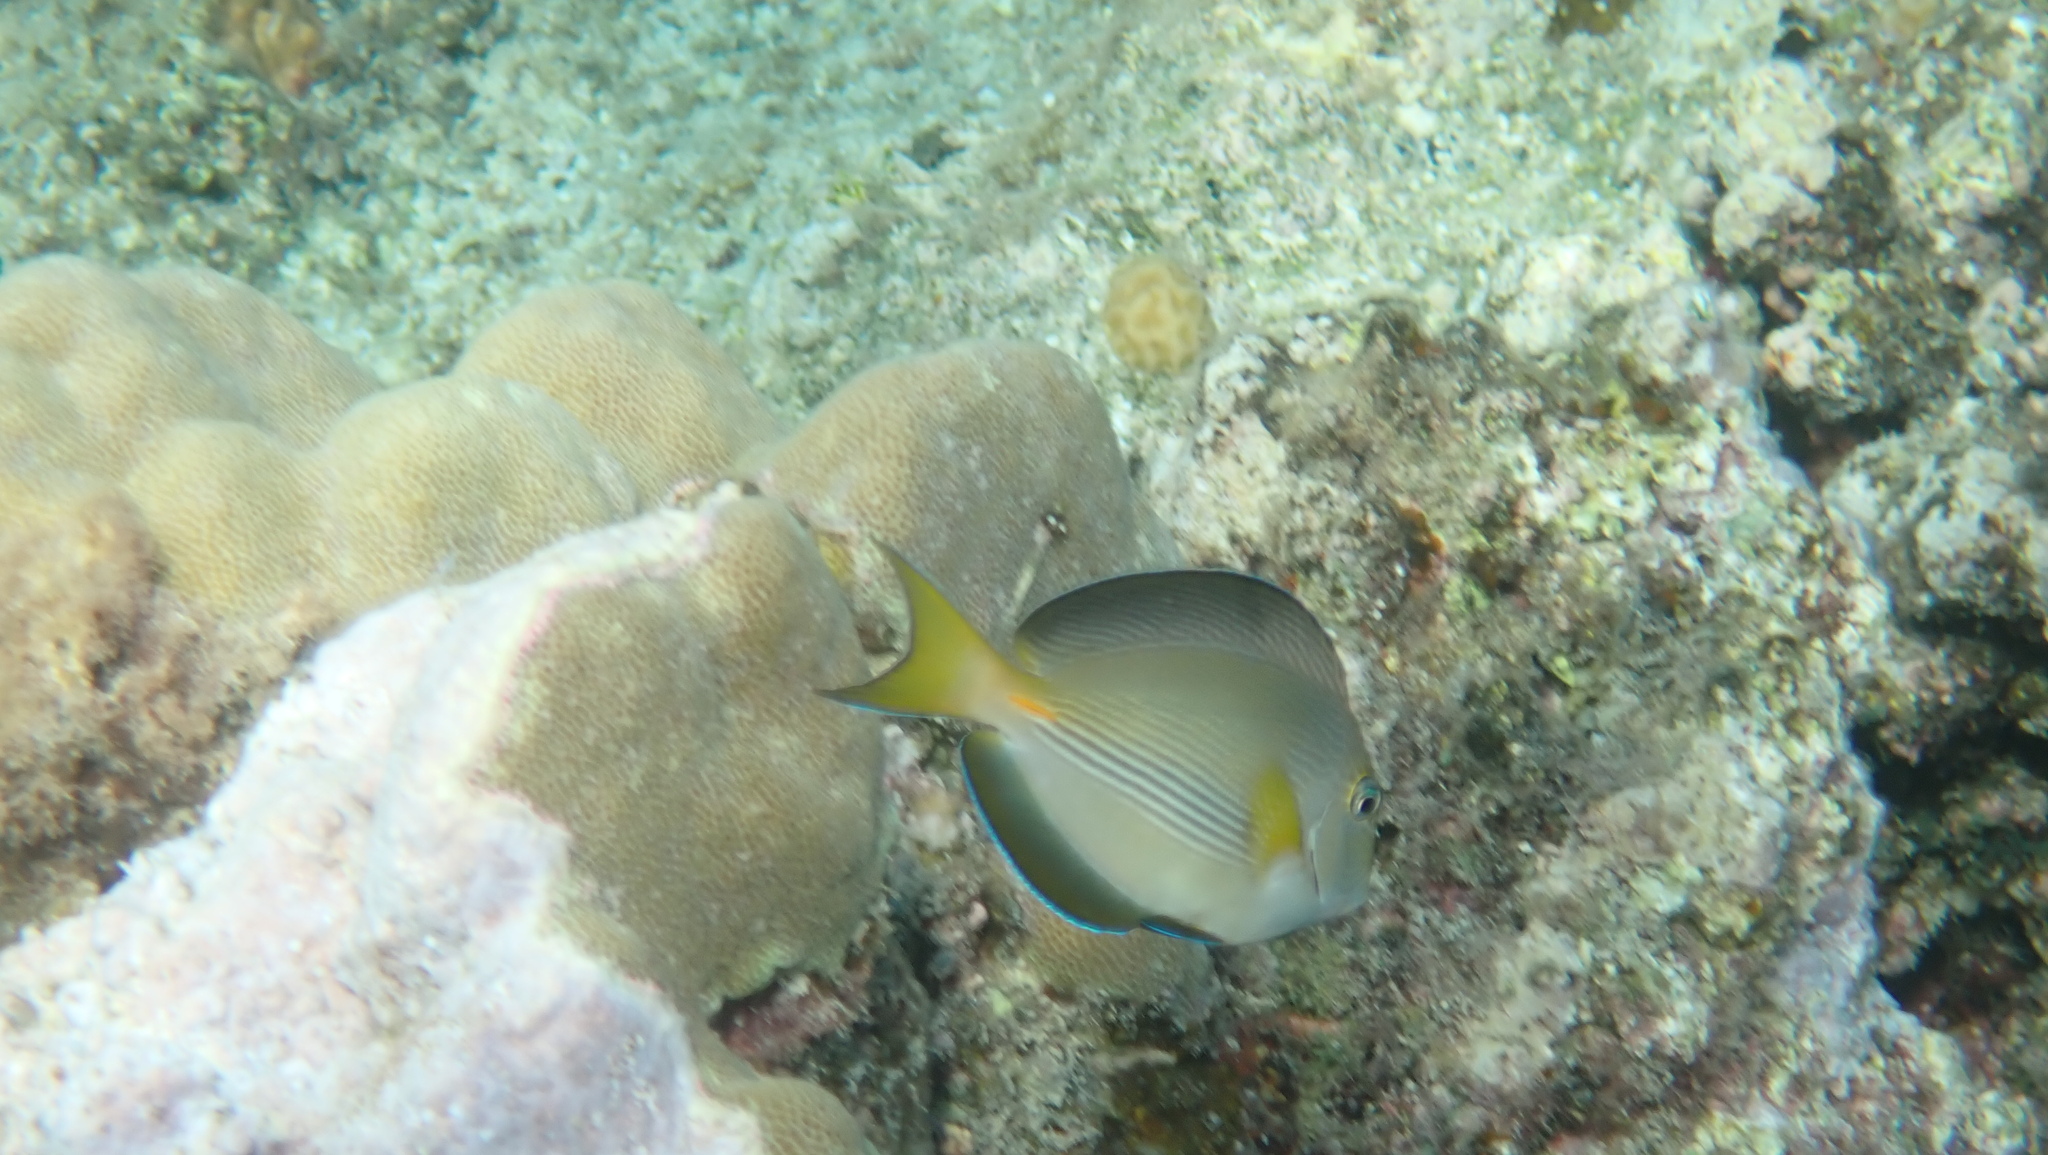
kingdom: Animalia
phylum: Chordata
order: Perciformes
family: Acanthuridae
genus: Acanthurus
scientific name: Acanthurus sohal
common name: Red sea surgeonfish
